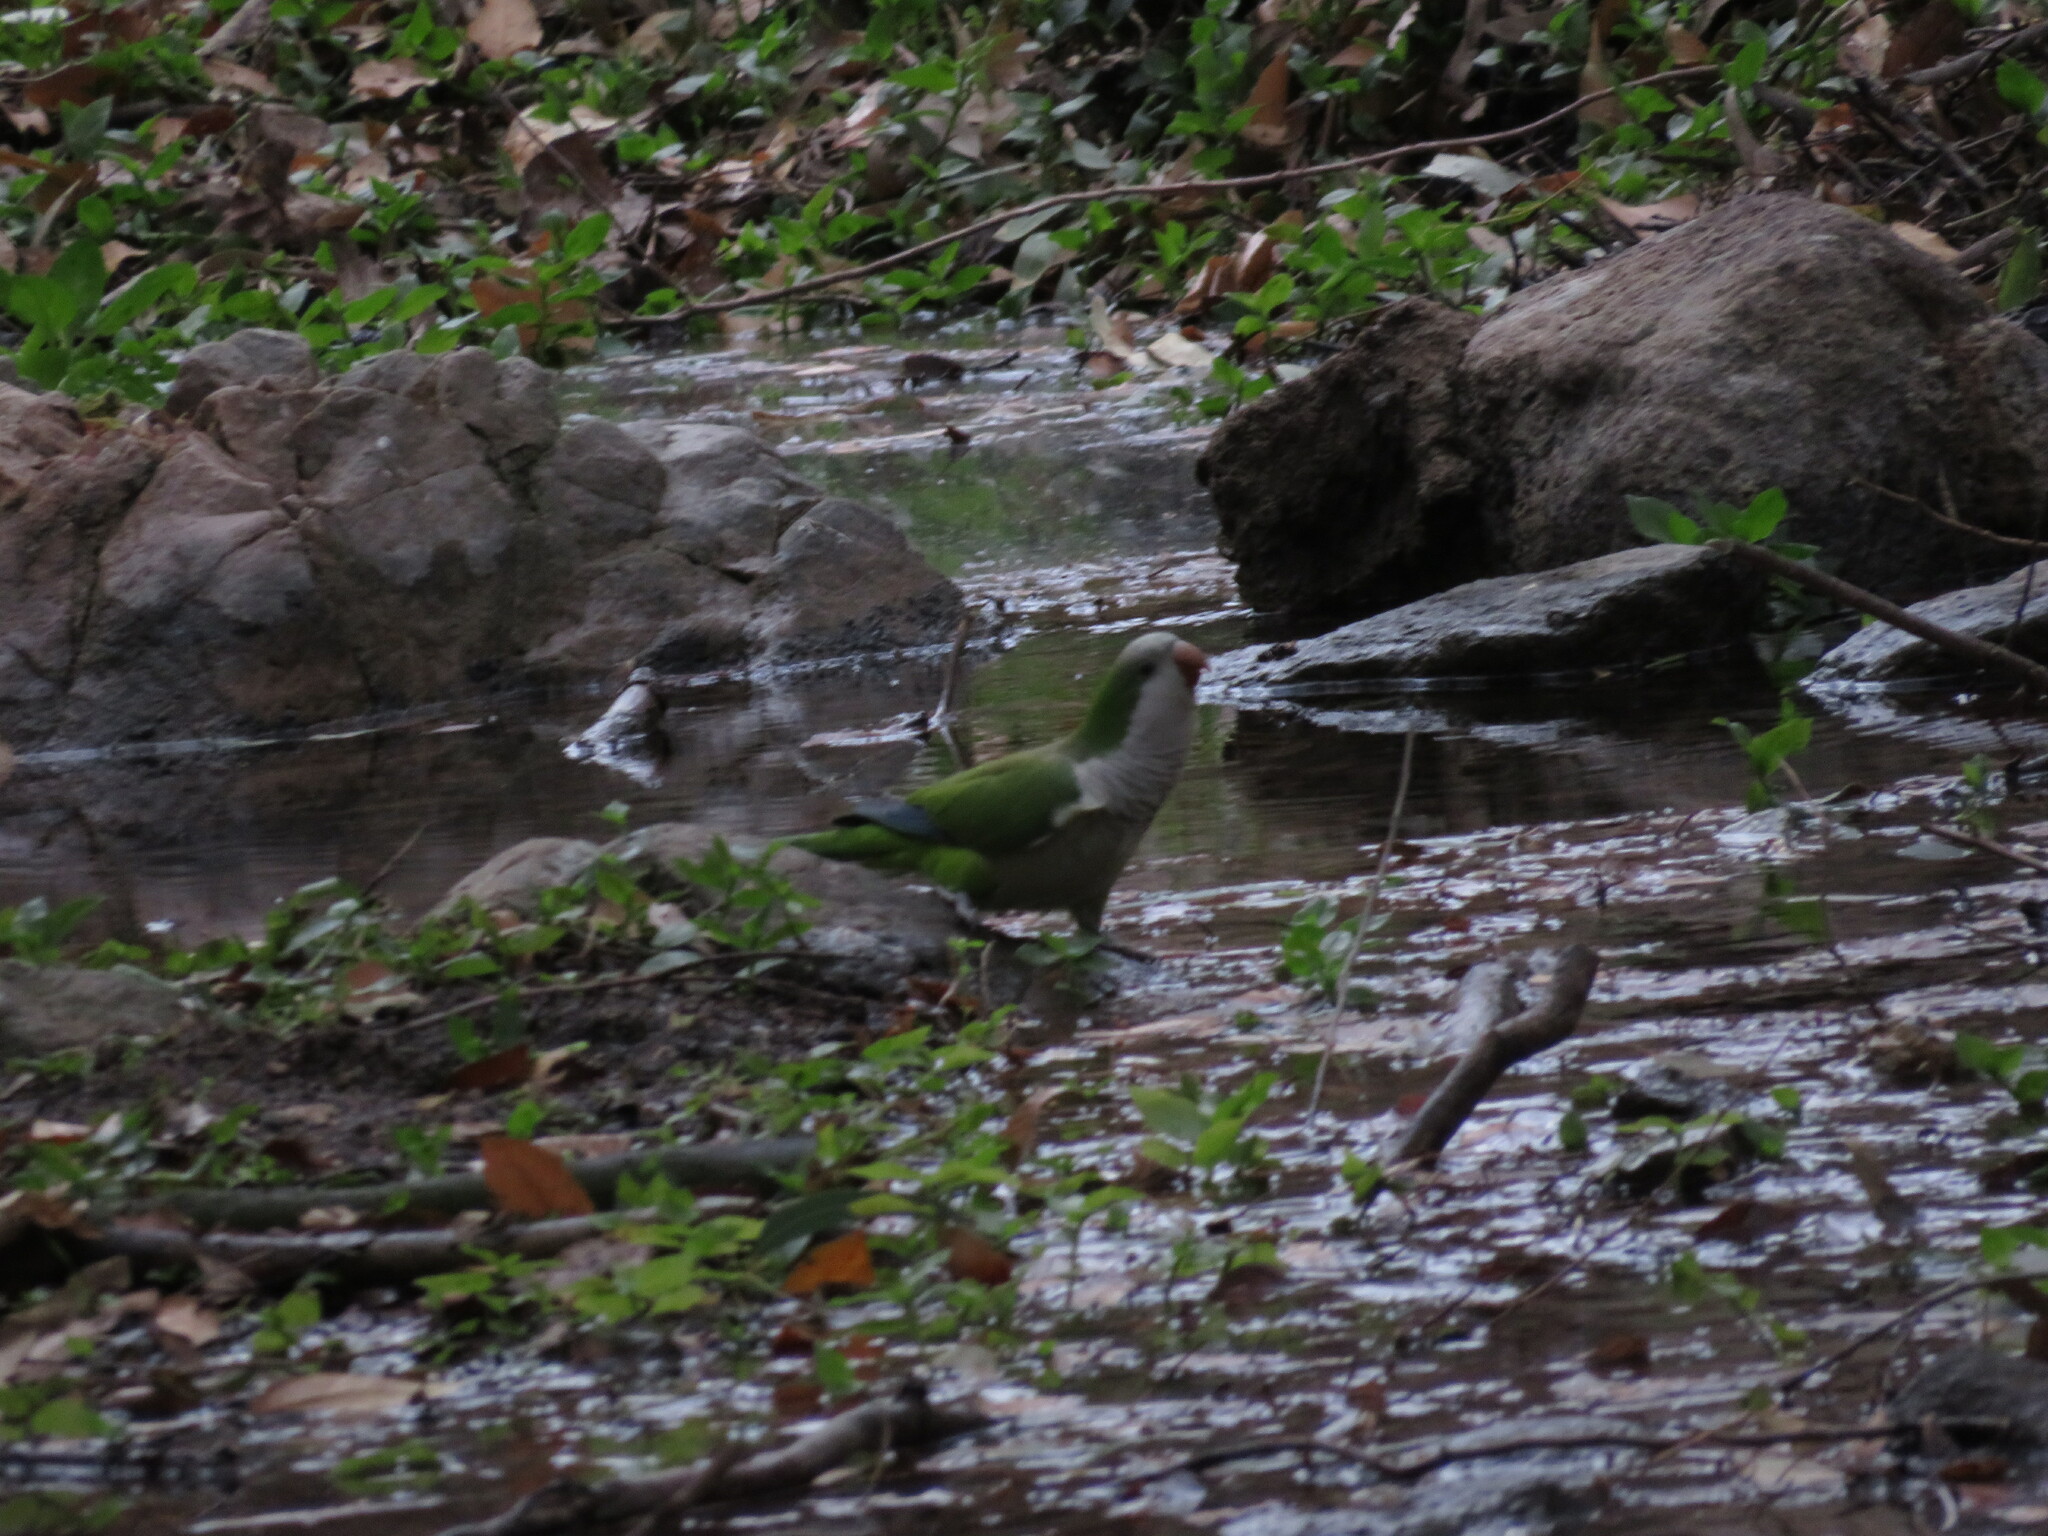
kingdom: Animalia
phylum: Chordata
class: Aves
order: Psittaciformes
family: Psittacidae
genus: Myiopsitta
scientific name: Myiopsitta monachus
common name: Monk parakeet
